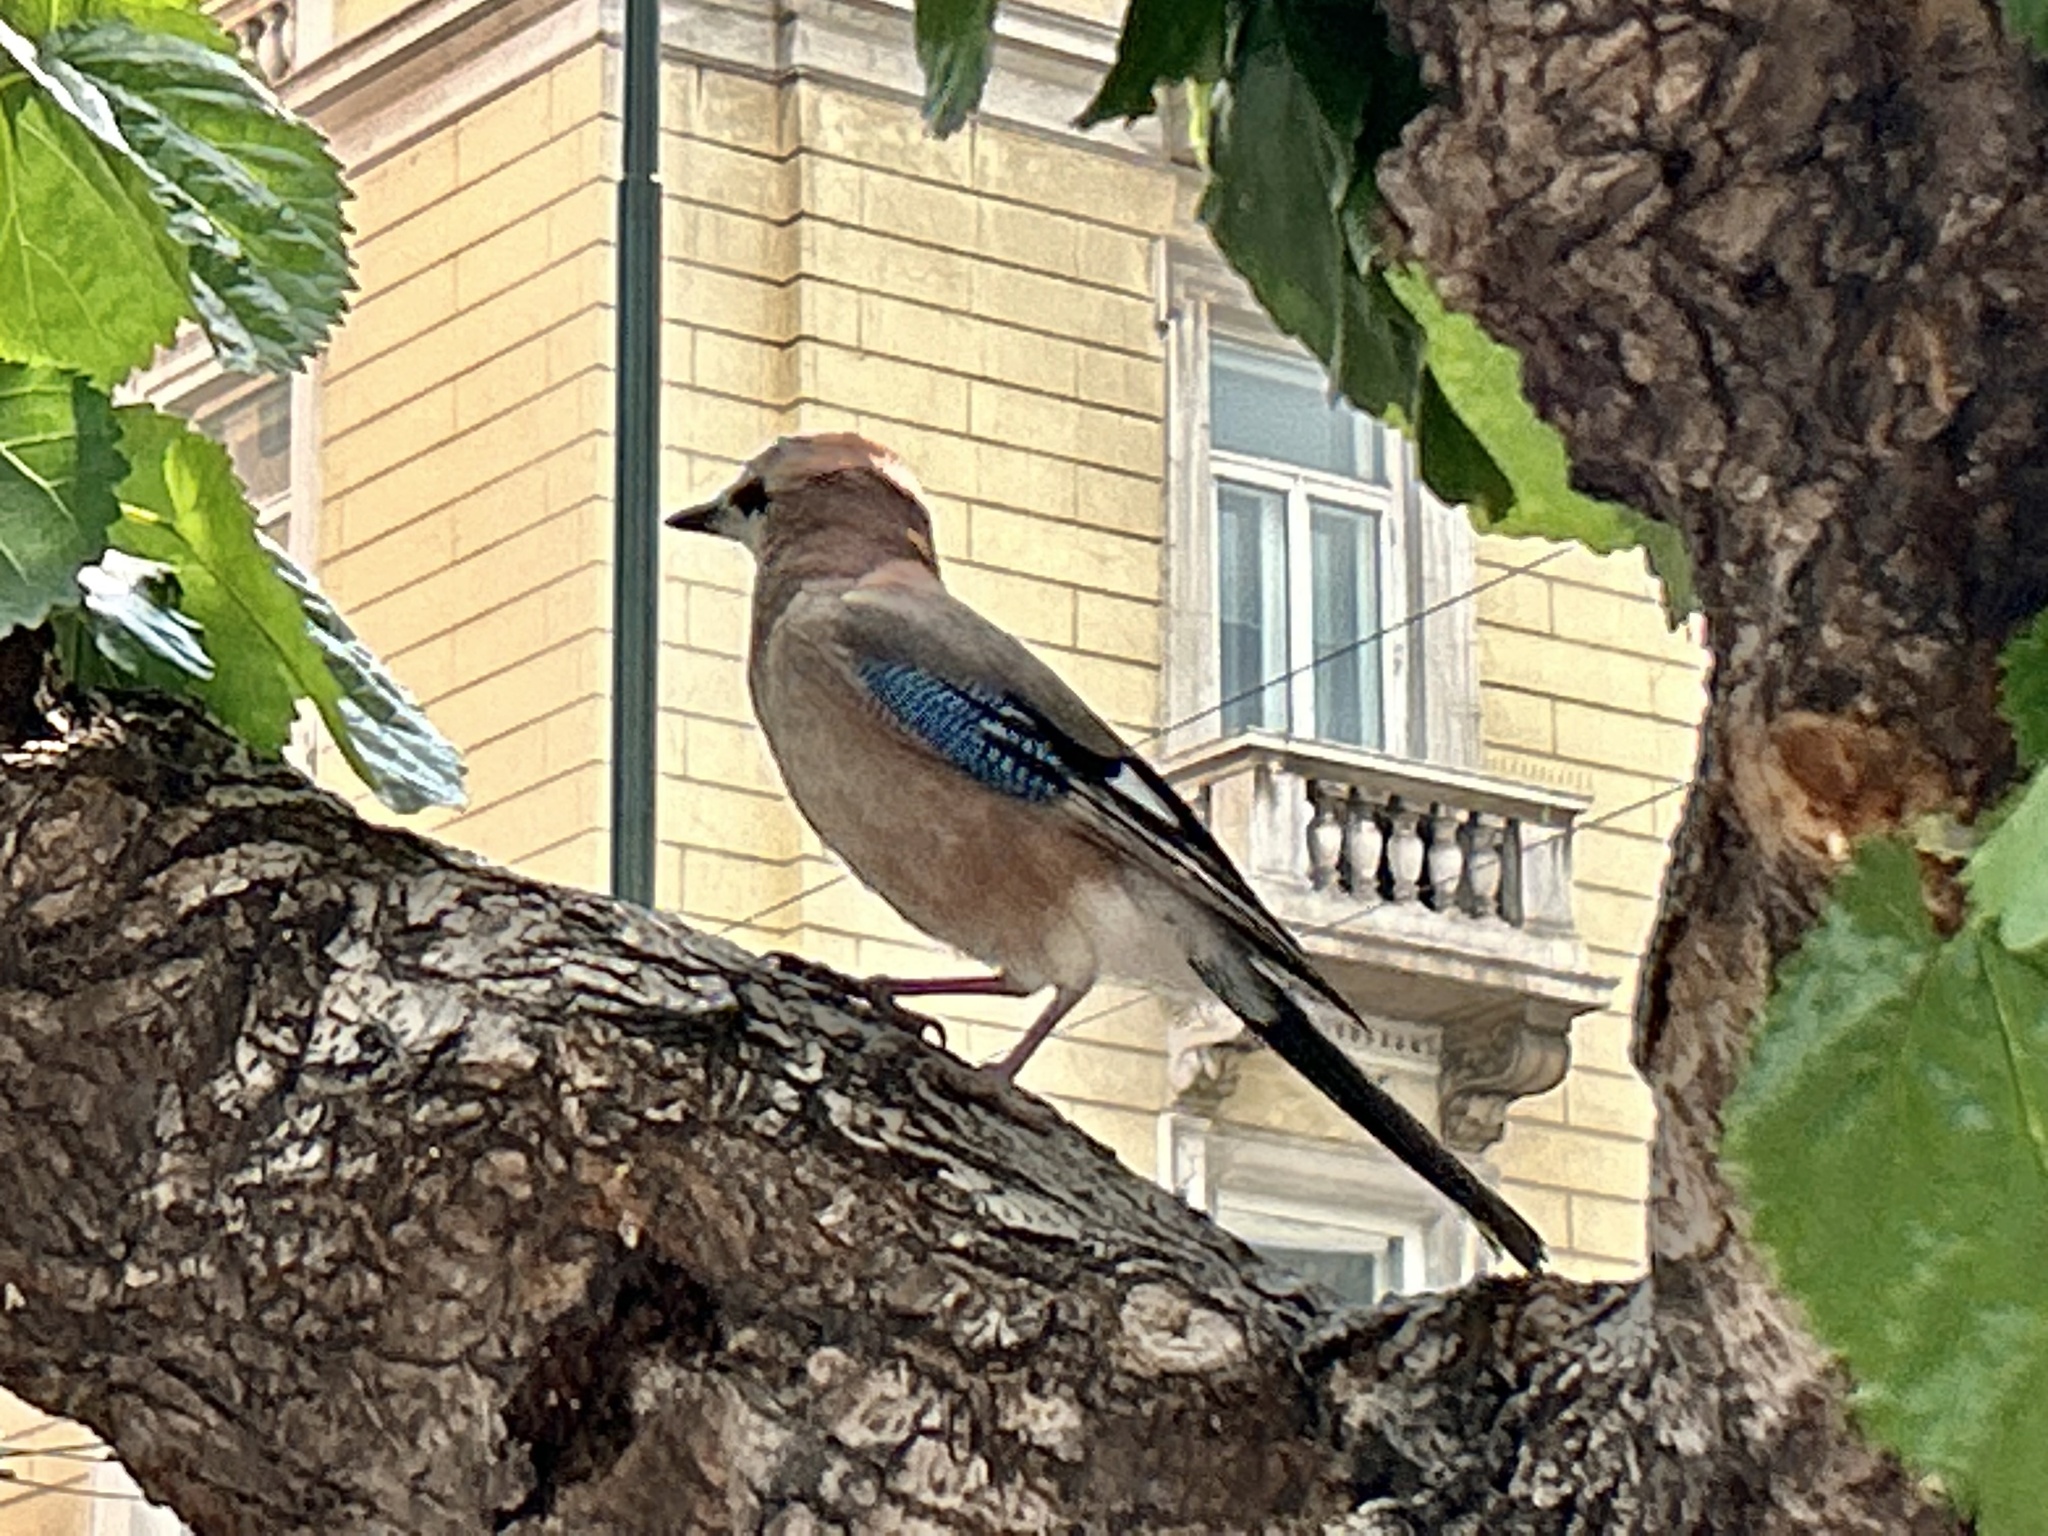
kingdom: Animalia
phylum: Chordata
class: Aves
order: Passeriformes
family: Corvidae
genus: Garrulus
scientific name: Garrulus glandarius
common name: Eurasian jay
